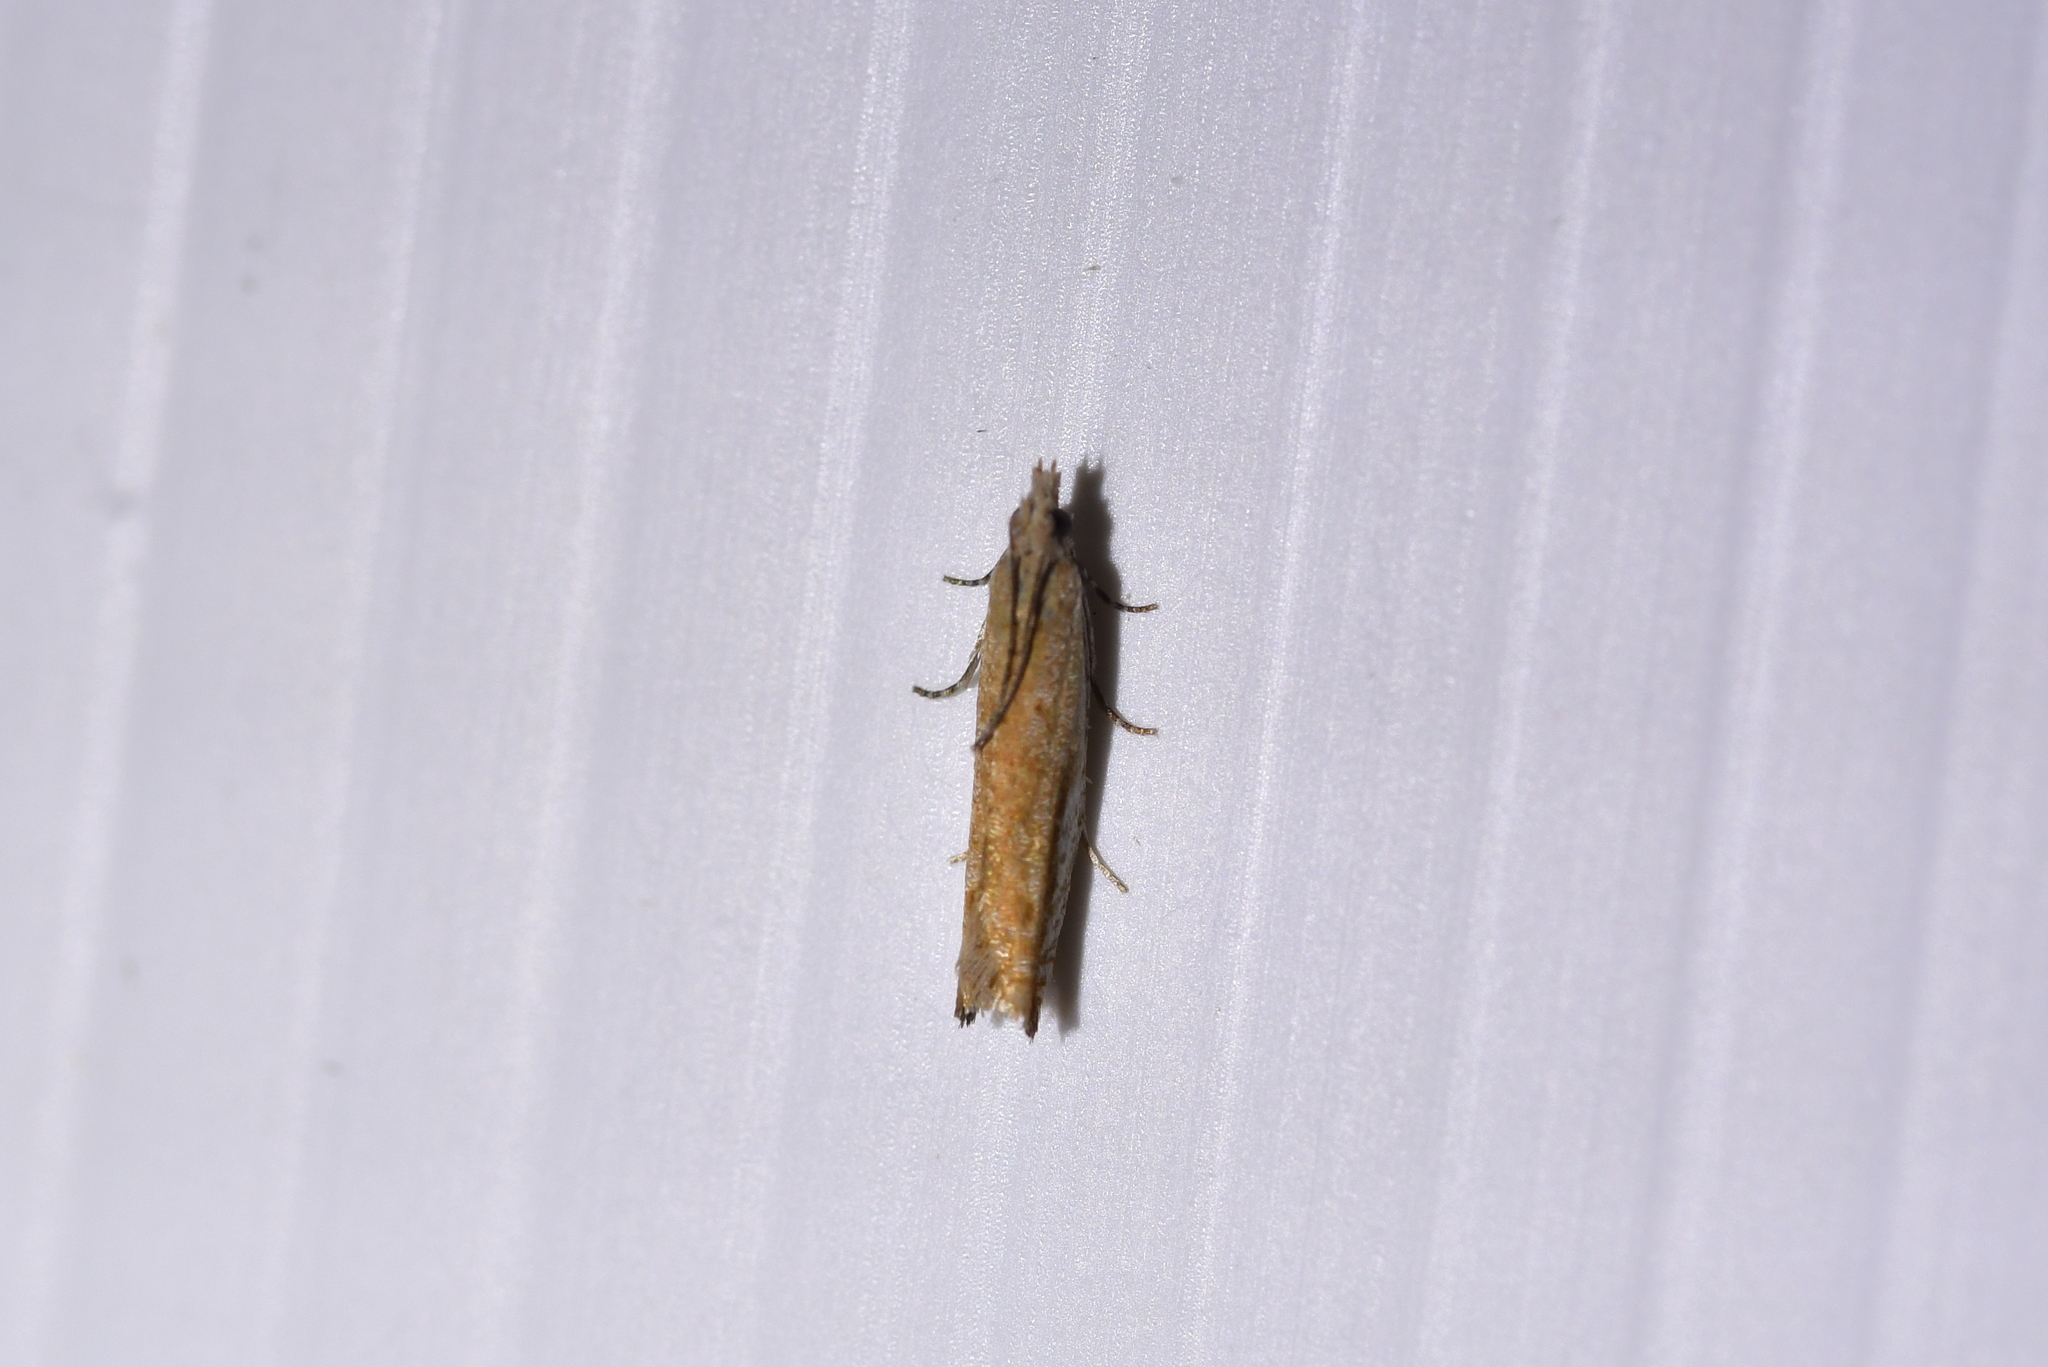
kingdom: Animalia
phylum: Arthropoda
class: Insecta
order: Lepidoptera
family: Tortricidae
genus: Holocola
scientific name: Holocola
